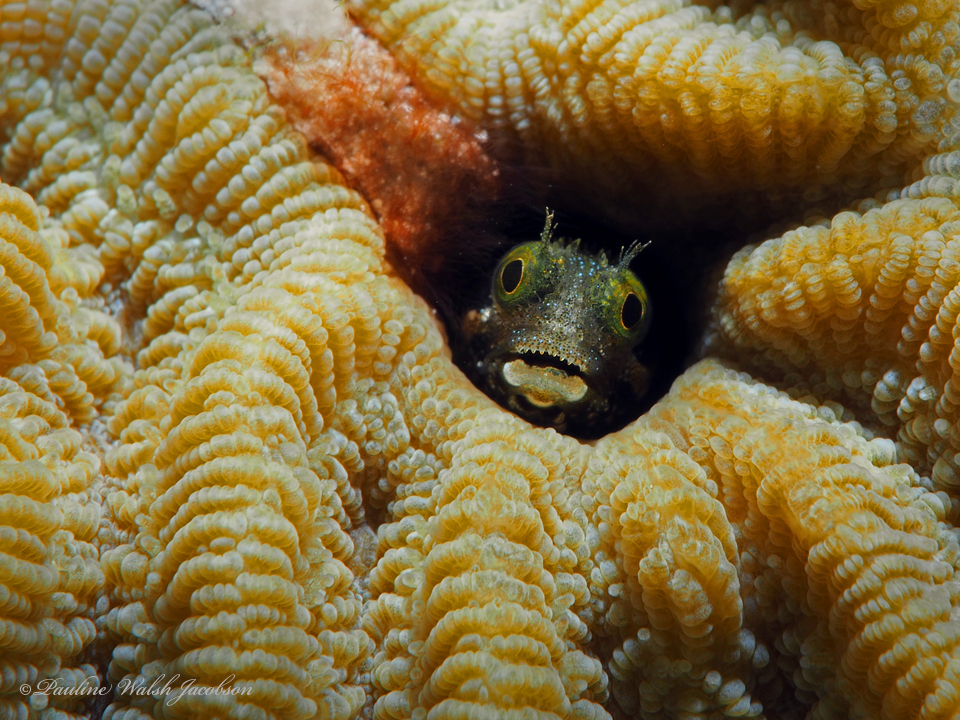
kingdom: Animalia
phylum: Chordata
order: Perciformes
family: Chaenopsidae
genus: Acanthemblemaria
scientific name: Acanthemblemaria spinosa
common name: Spinyhead blenny
